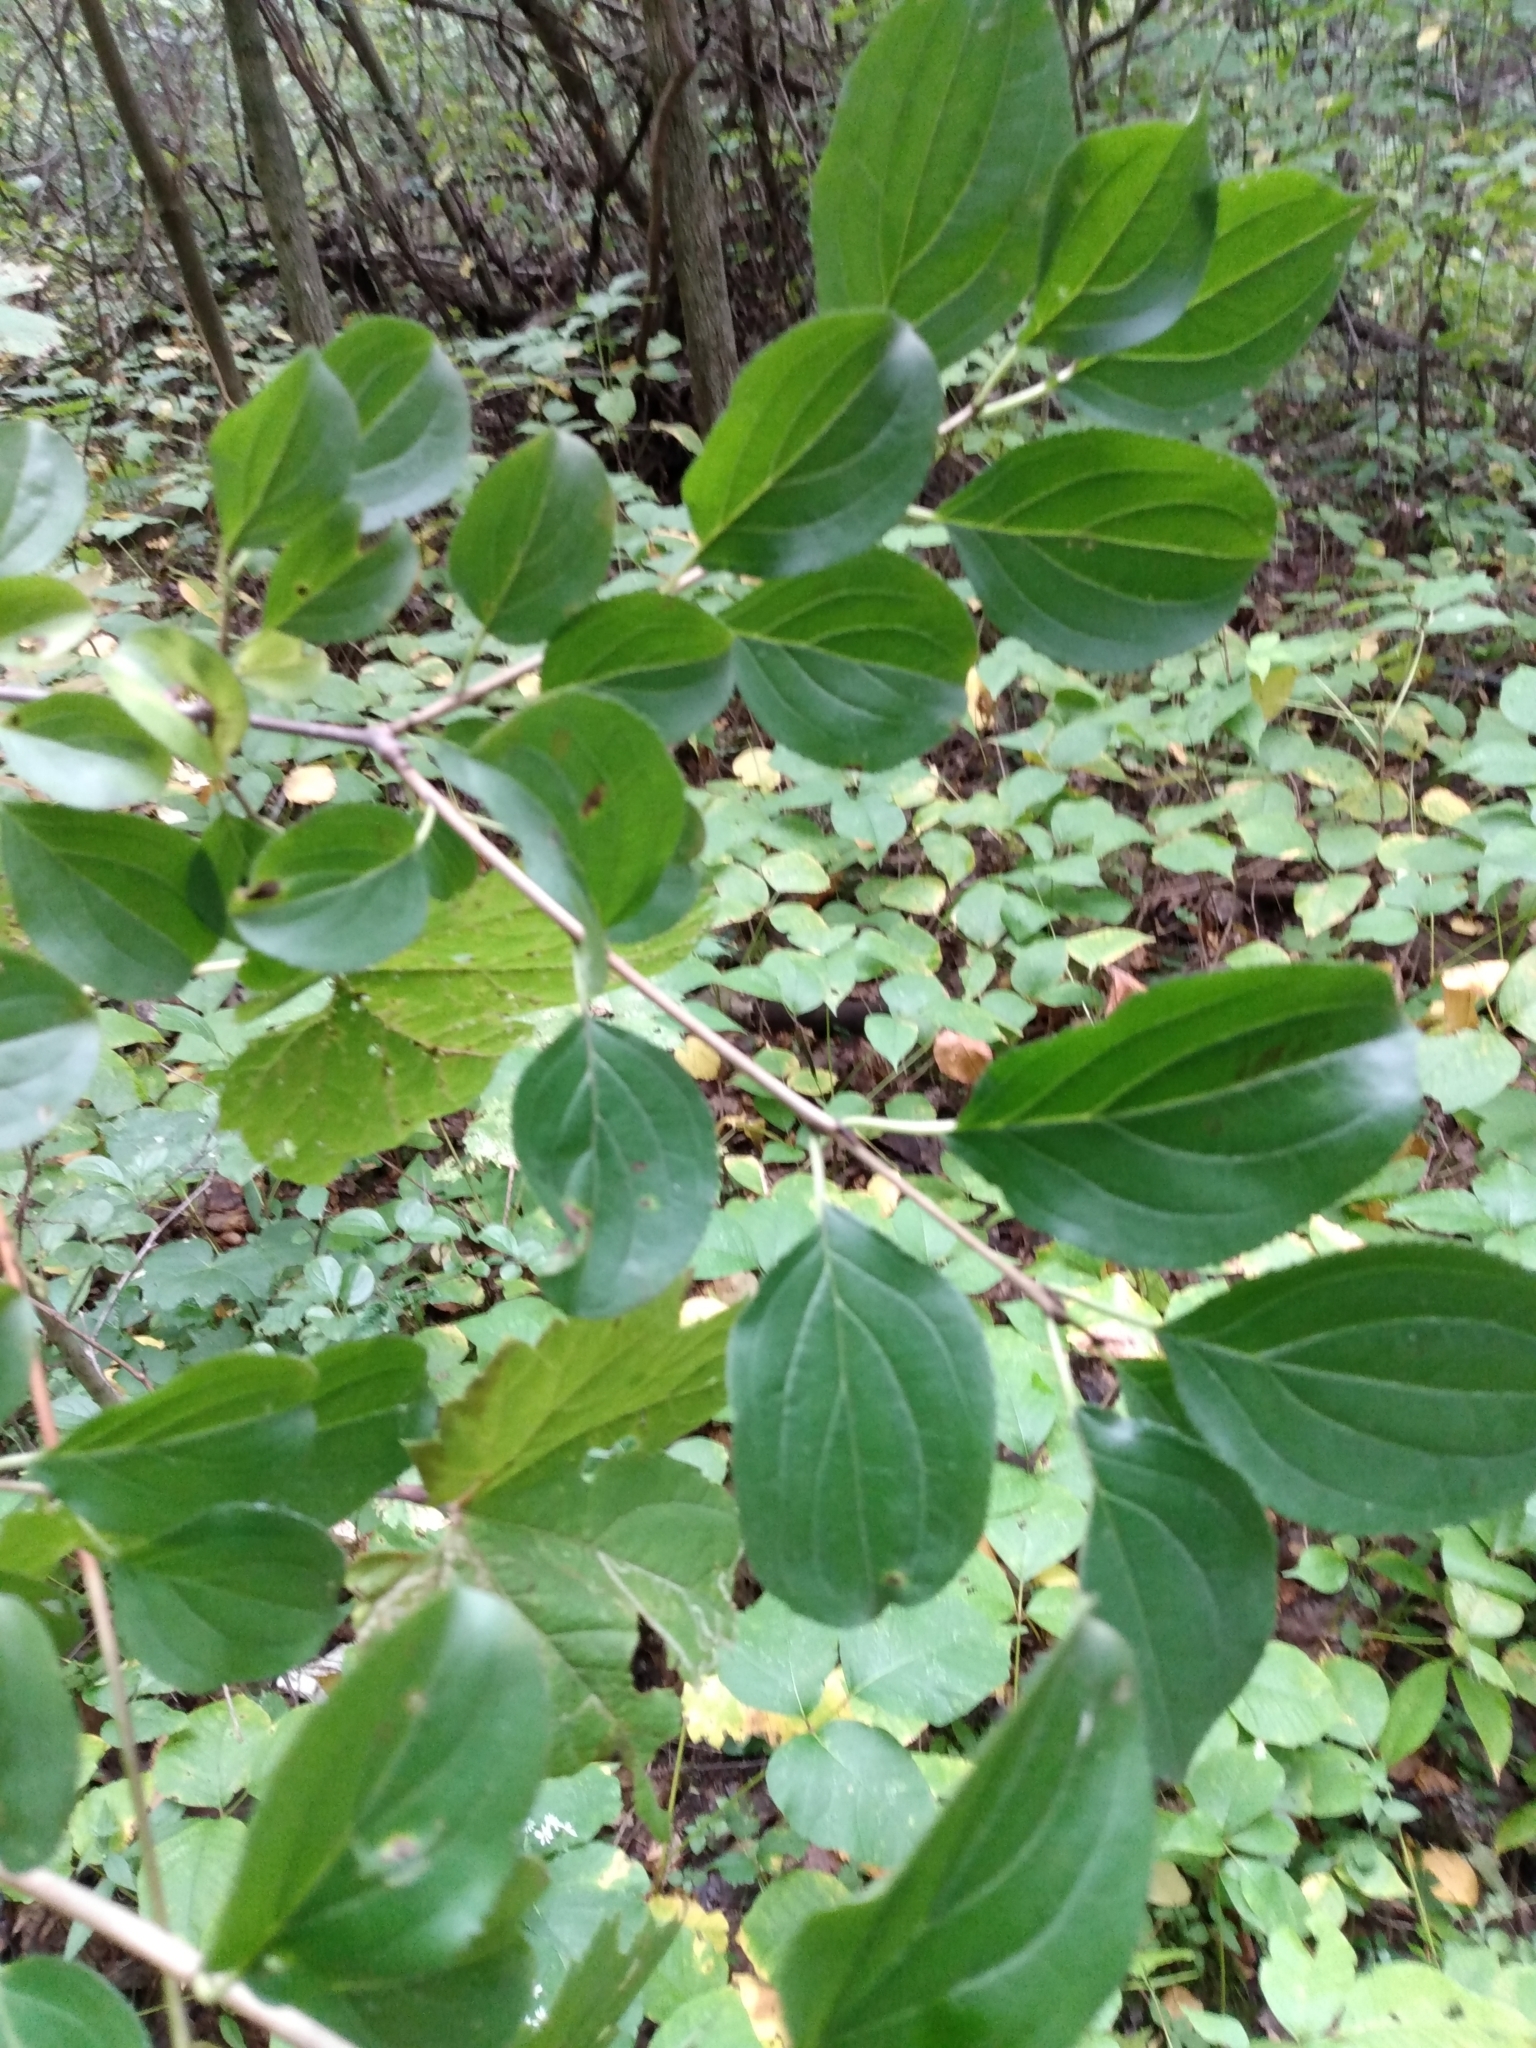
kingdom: Plantae
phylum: Tracheophyta
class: Magnoliopsida
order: Rosales
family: Rhamnaceae
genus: Rhamnus
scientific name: Rhamnus cathartica
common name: Common buckthorn
